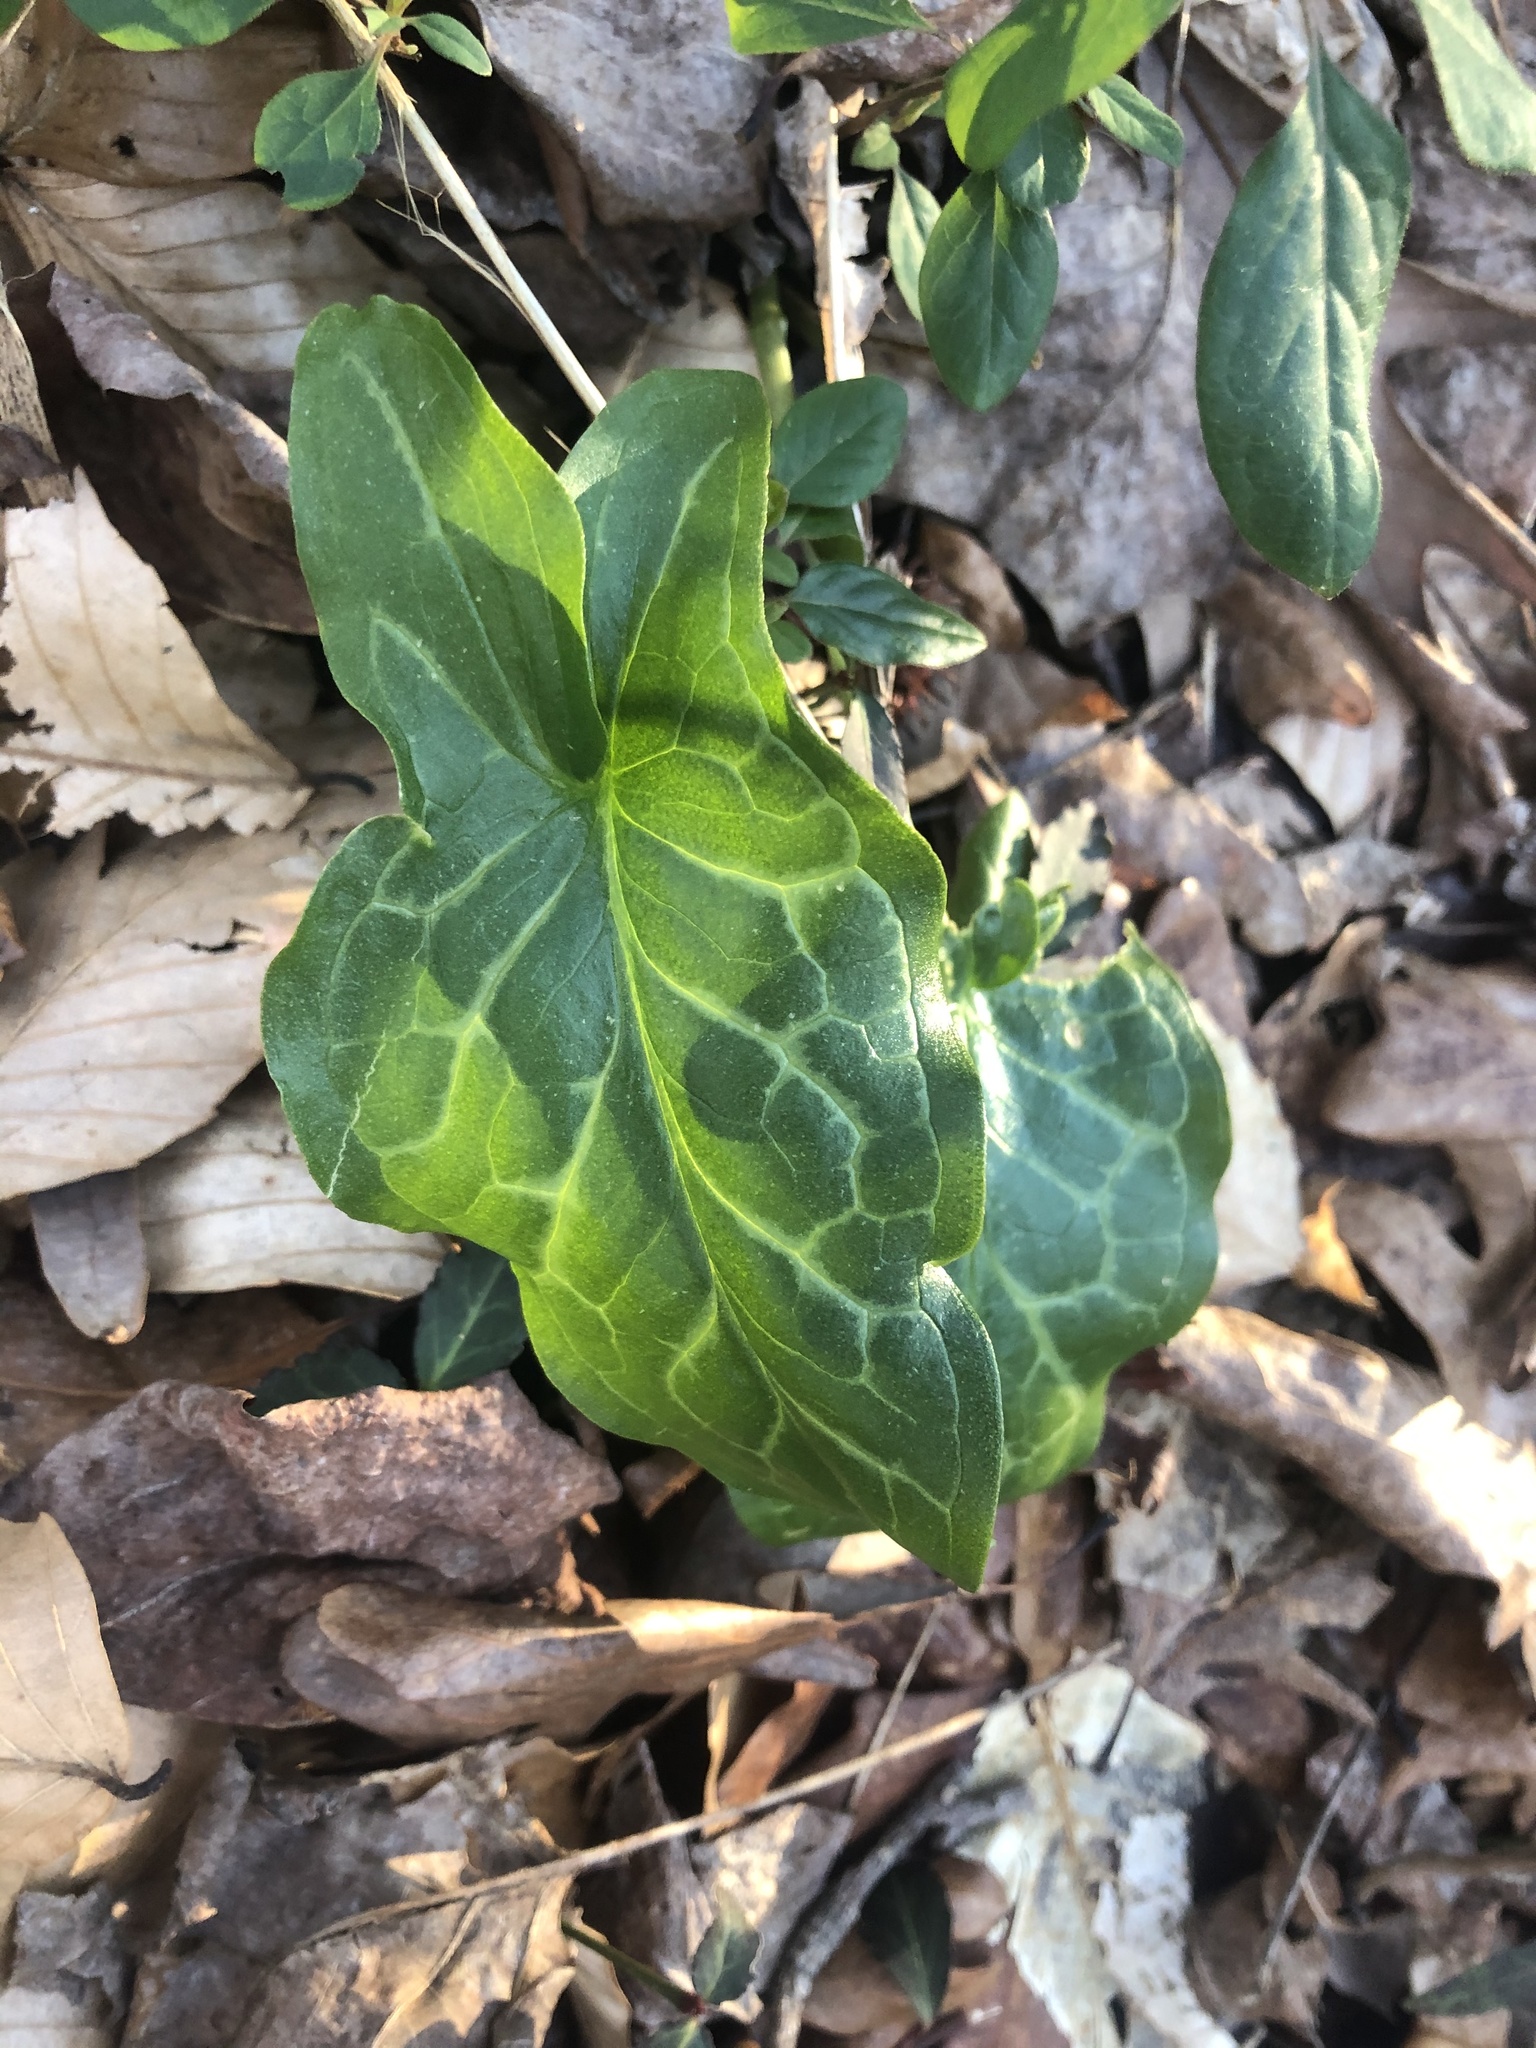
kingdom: Plantae
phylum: Tracheophyta
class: Liliopsida
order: Alismatales
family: Araceae
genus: Arum
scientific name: Arum italicum
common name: Italian lords-and-ladies
